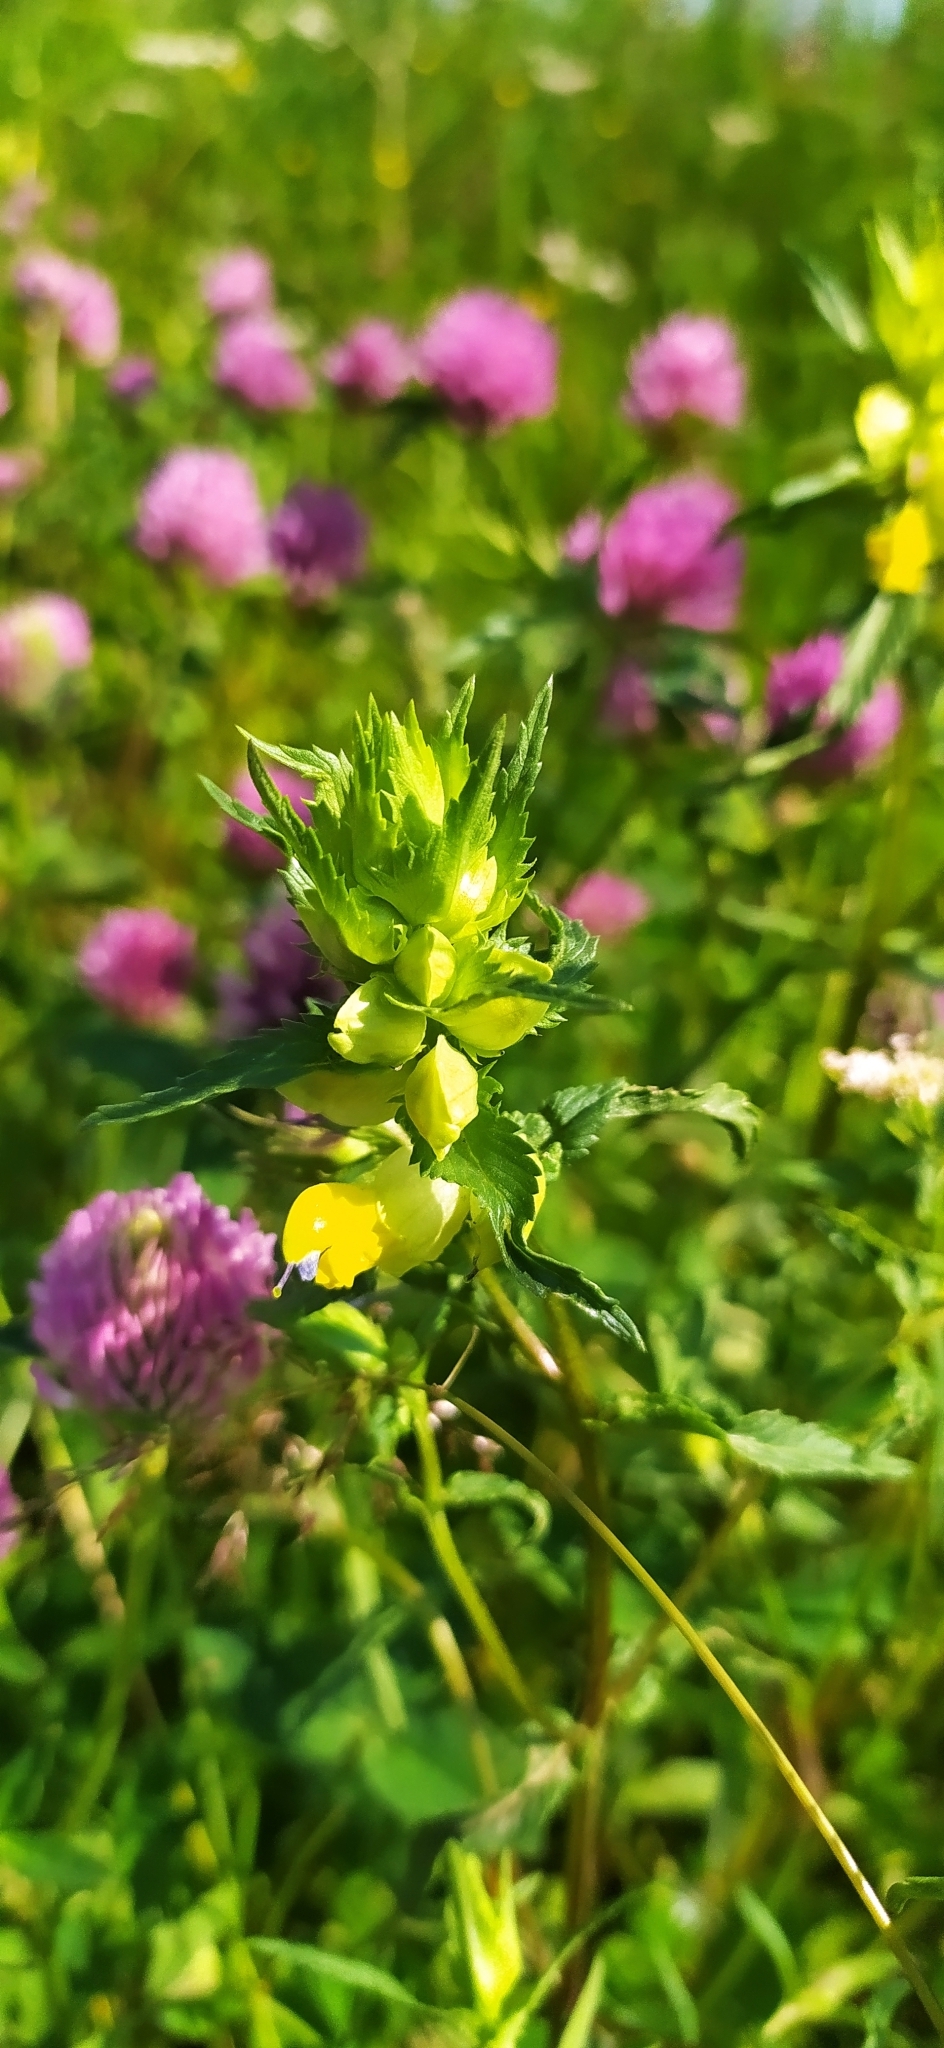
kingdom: Plantae
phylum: Tracheophyta
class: Magnoliopsida
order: Lamiales
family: Orobanchaceae
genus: Rhinanthus
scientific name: Rhinanthus serotinus
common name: Late-flowering yellow rattle
